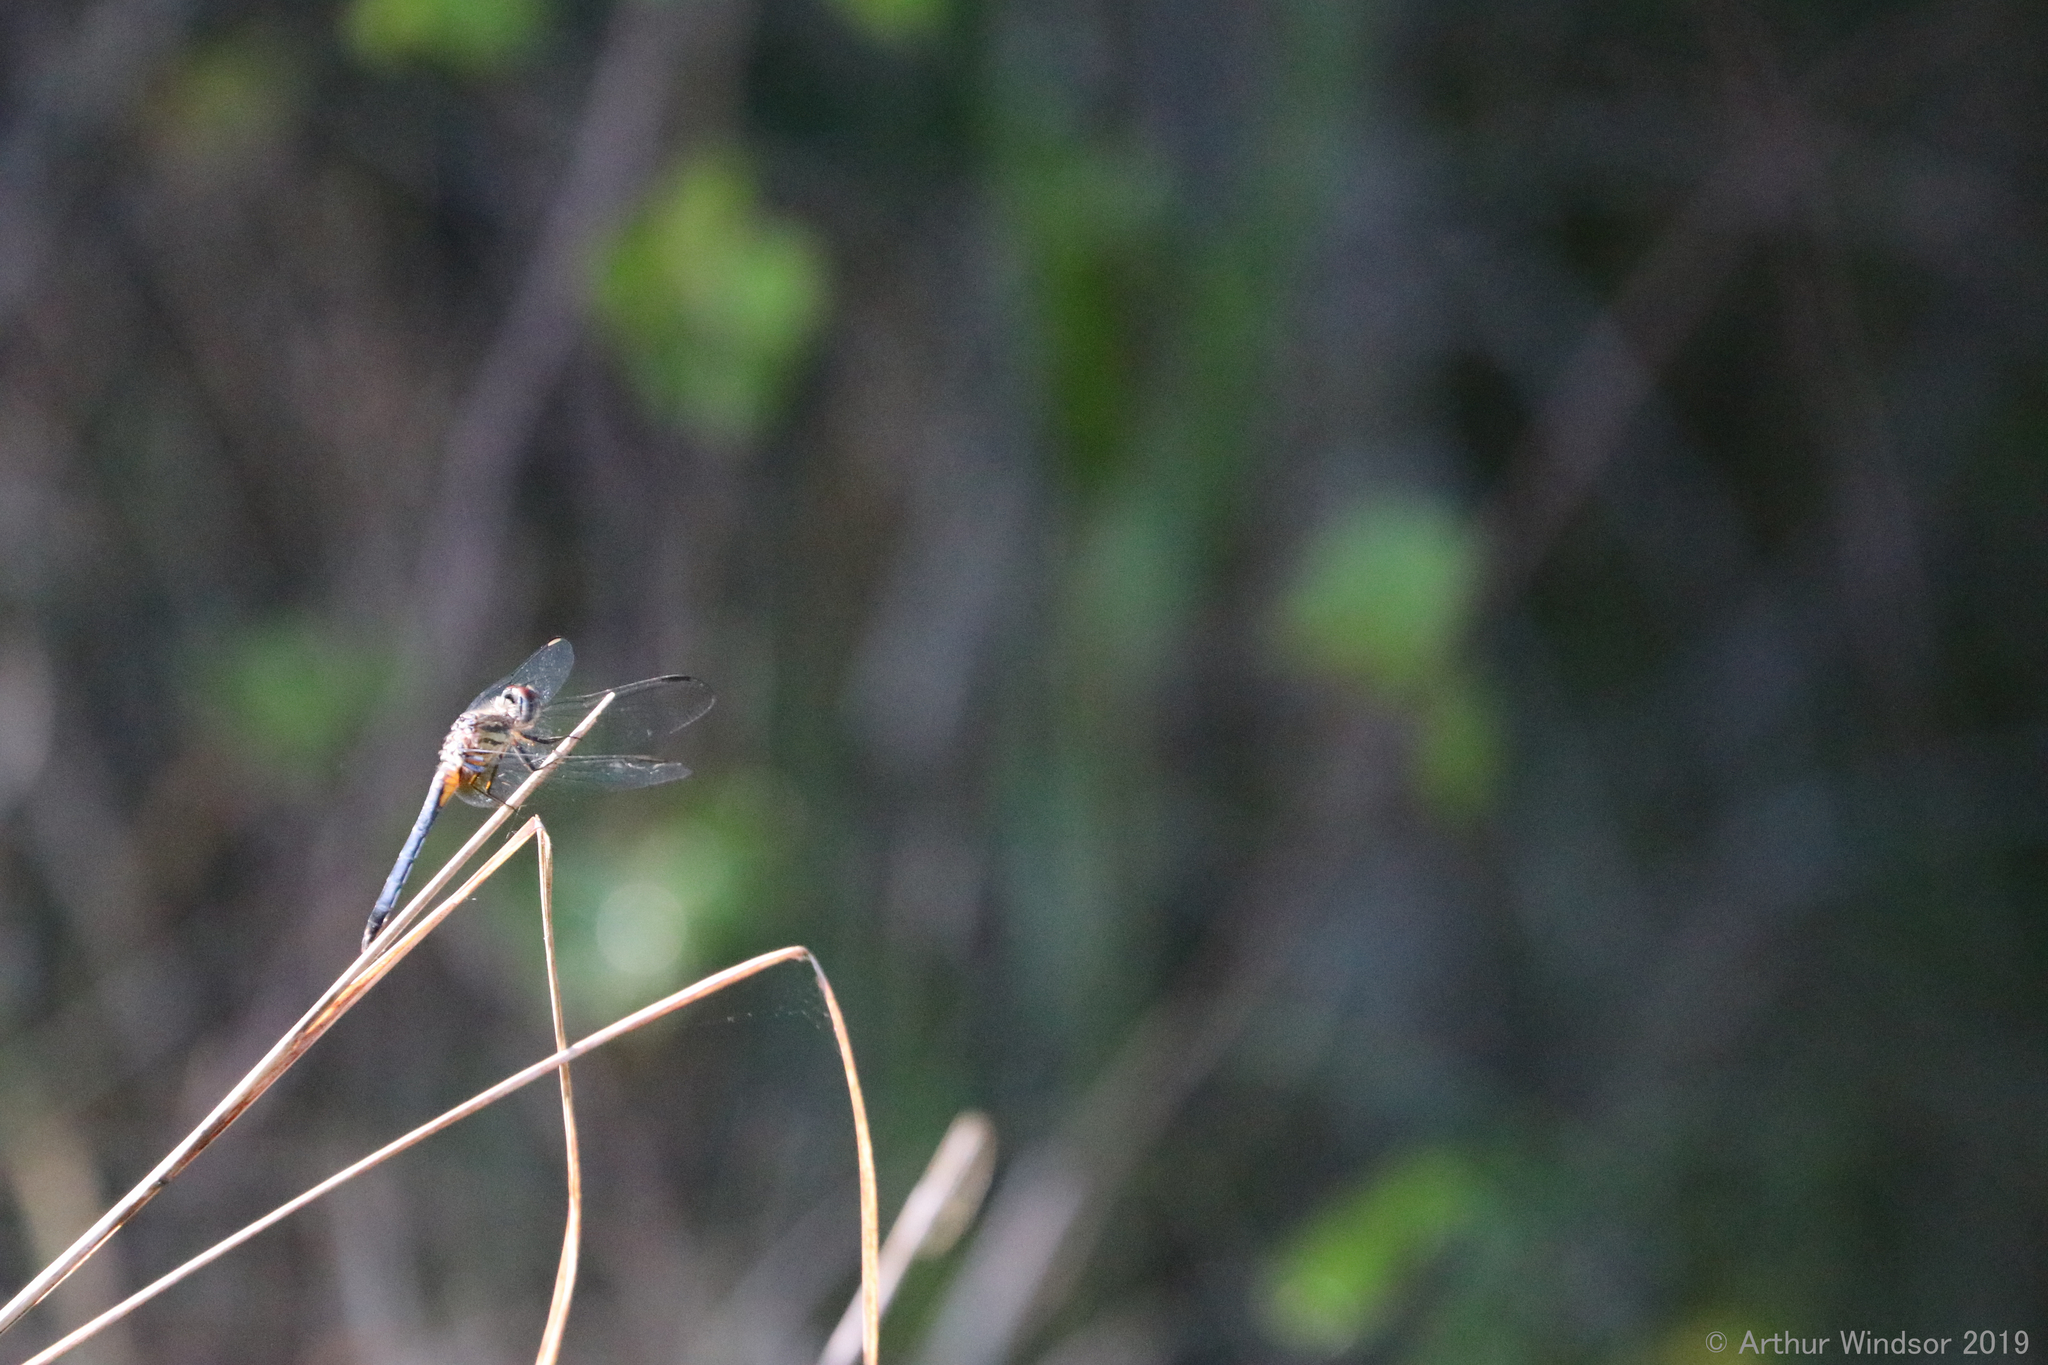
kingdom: Animalia
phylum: Arthropoda
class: Insecta
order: Odonata
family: Libellulidae
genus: Pachydiplax
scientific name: Pachydiplax longipennis
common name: Blue dasher
